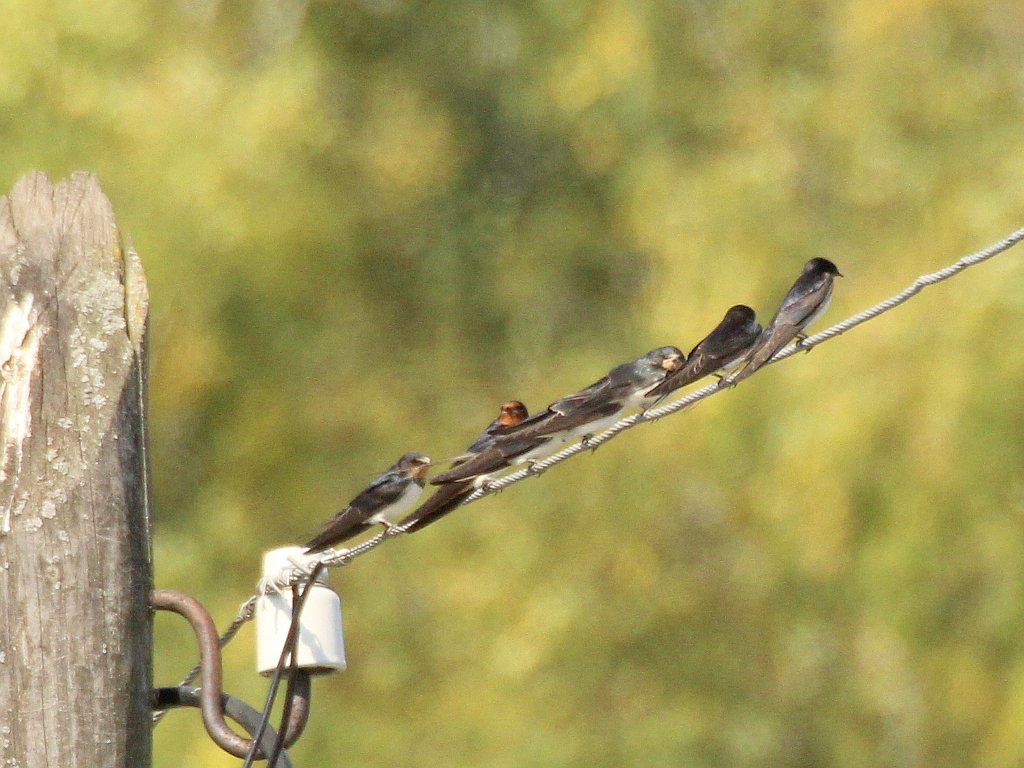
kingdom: Animalia
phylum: Chordata
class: Aves
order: Passeriformes
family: Hirundinidae
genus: Hirundo
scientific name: Hirundo rustica
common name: Barn swallow
